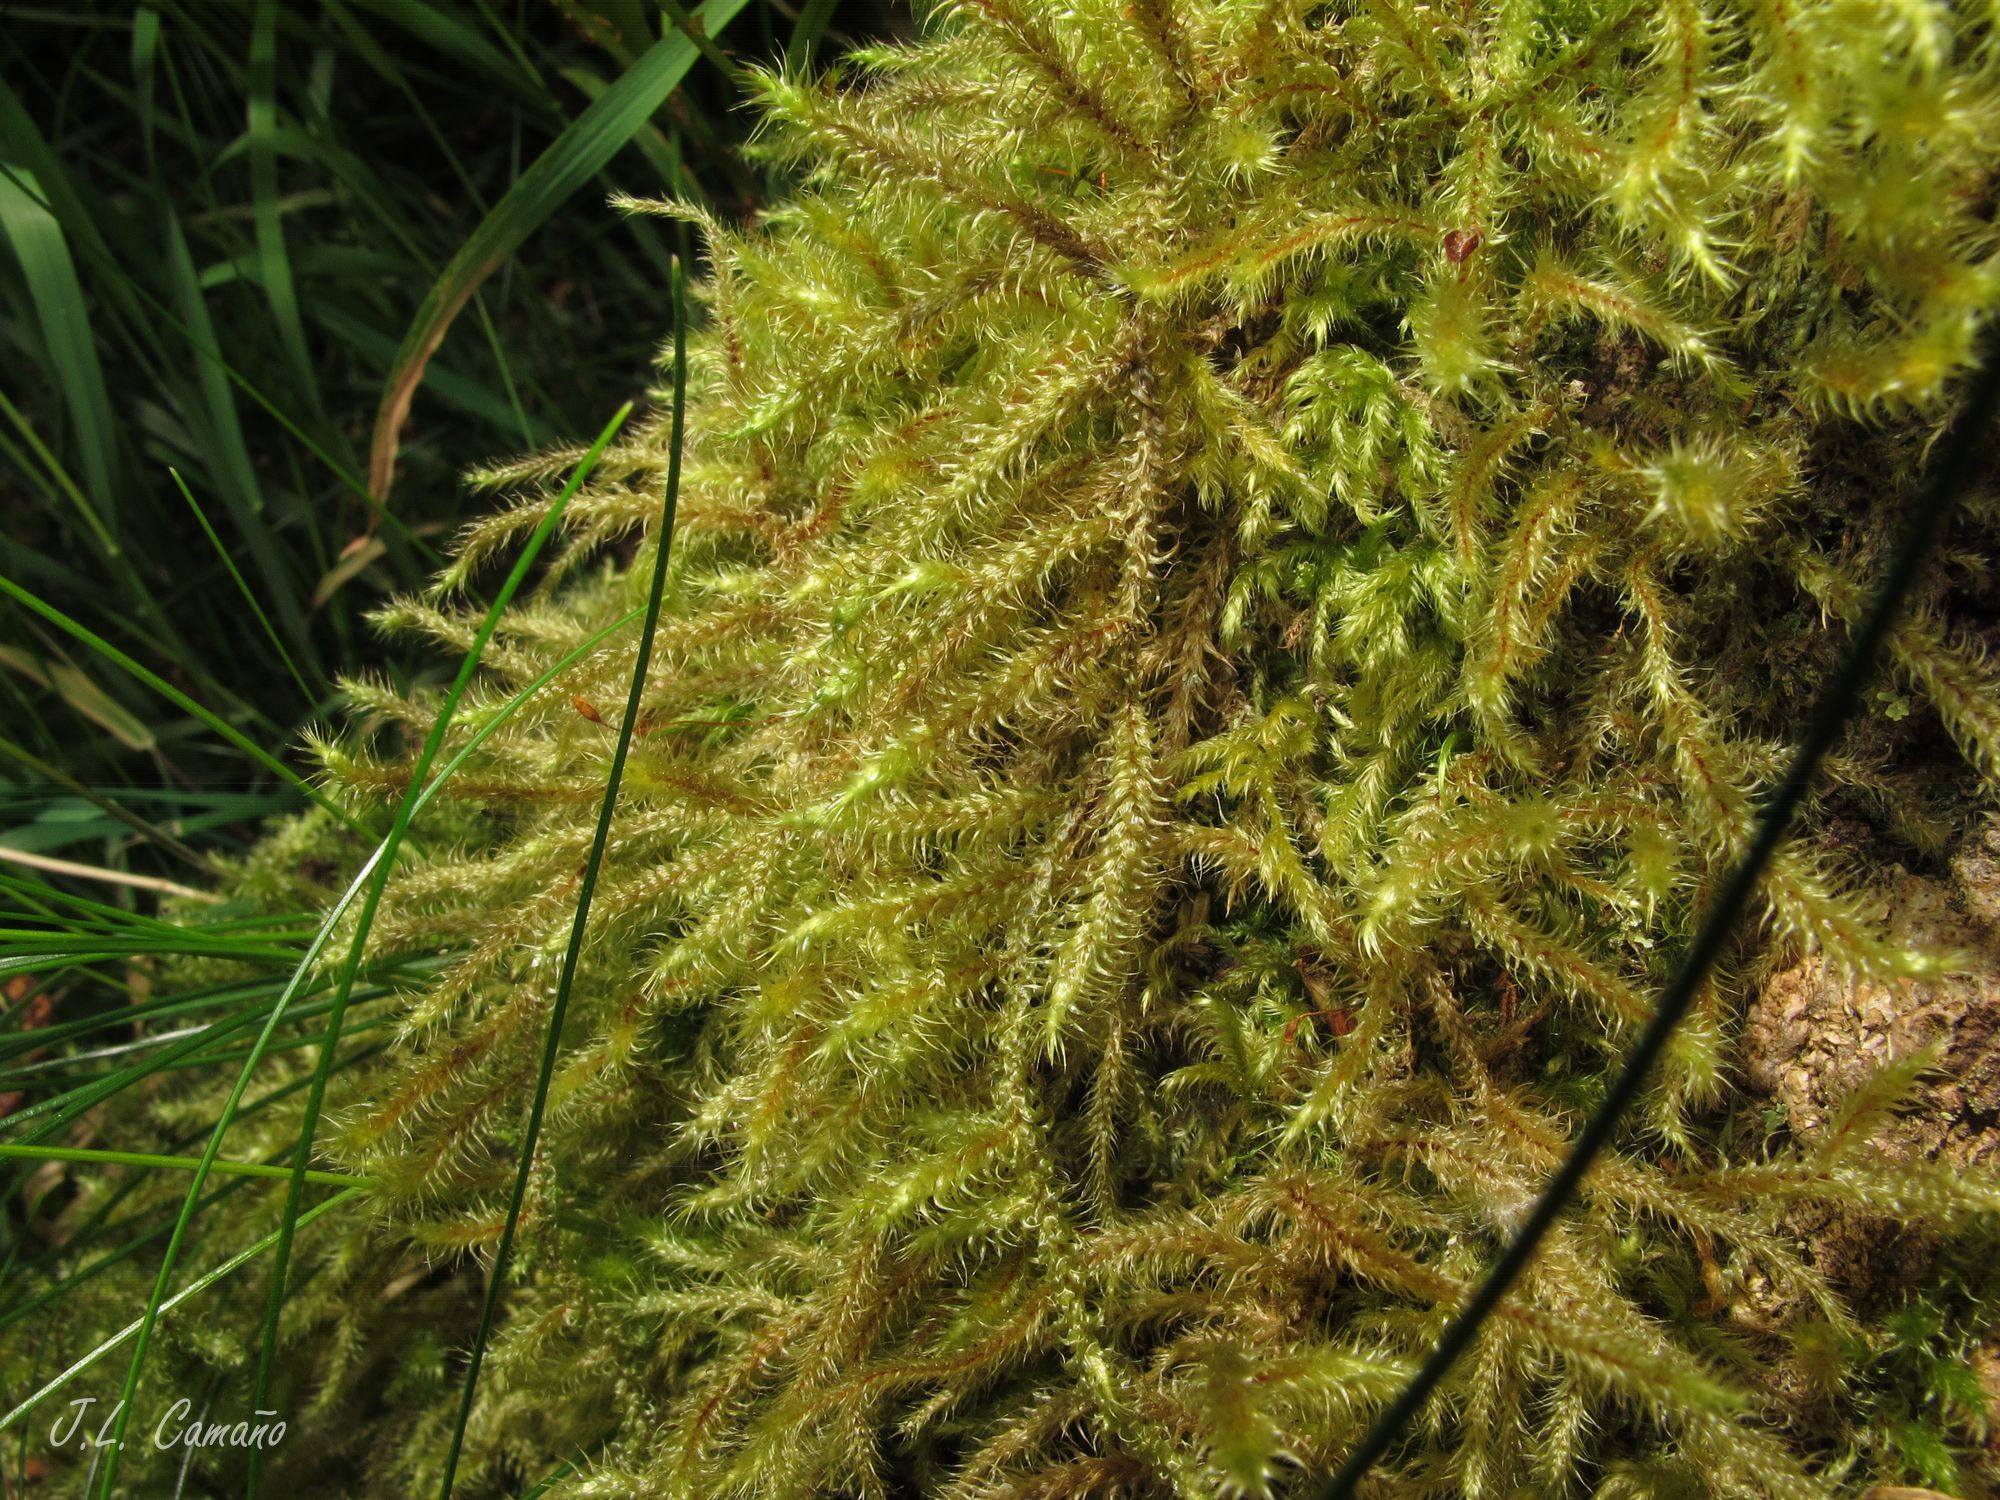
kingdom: Plantae
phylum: Bryophyta
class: Bryopsida
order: Hypnales
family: Hylocomiaceae
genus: Rhytidiadelphus
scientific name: Rhytidiadelphus loreus
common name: Lanky moss
